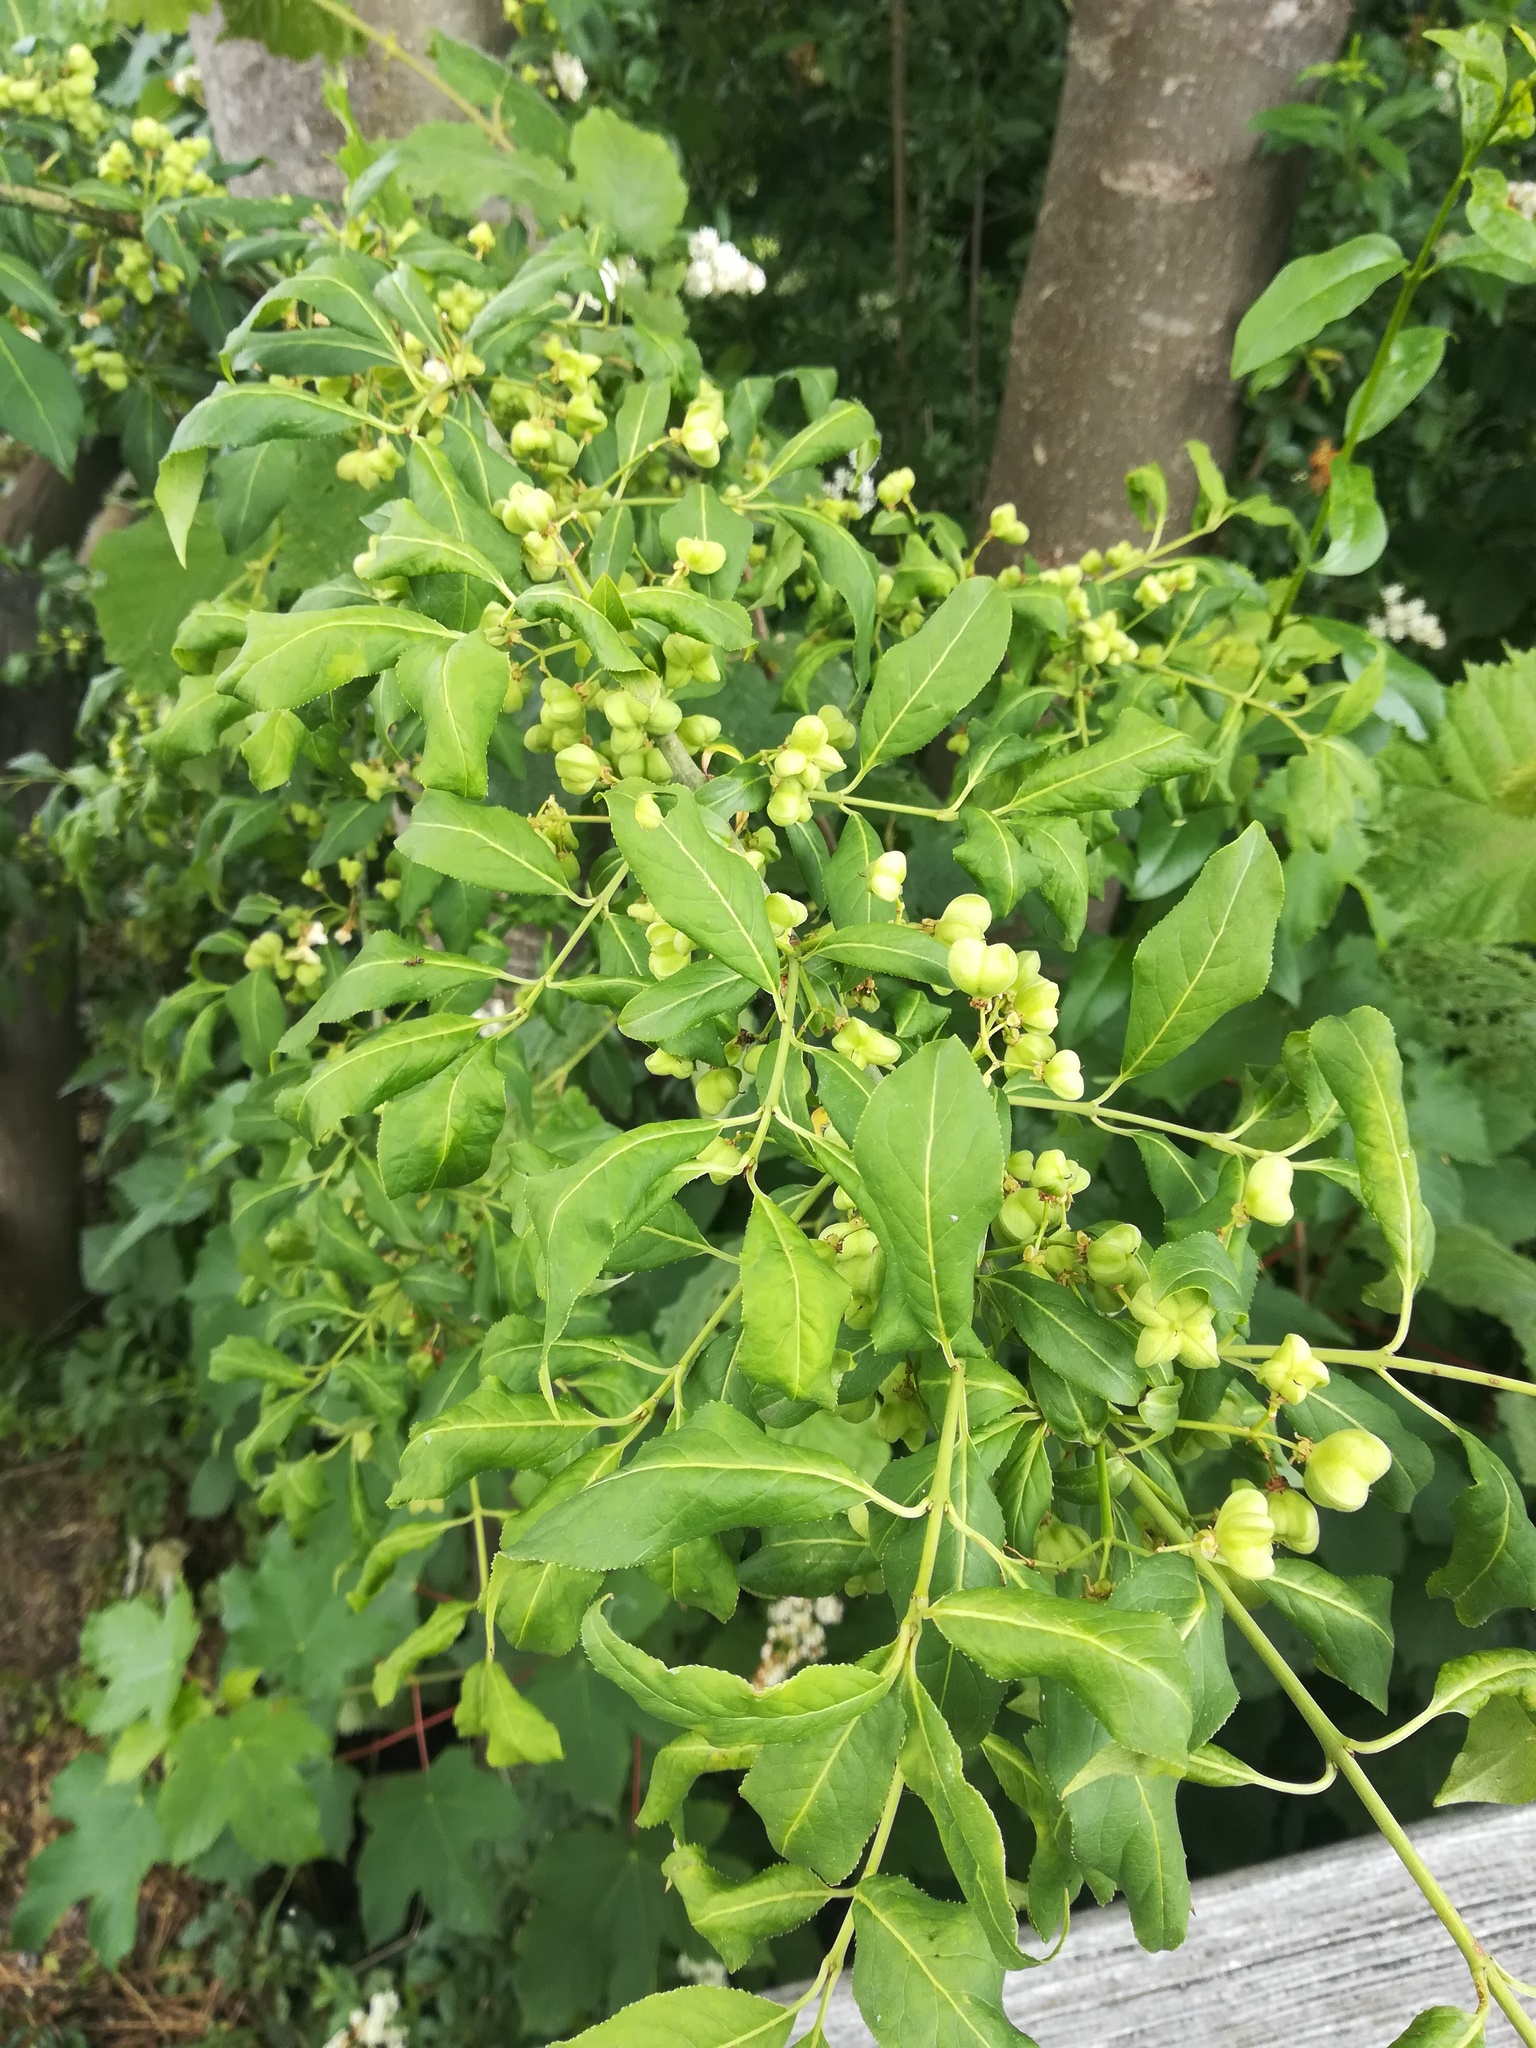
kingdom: Plantae
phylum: Tracheophyta
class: Magnoliopsida
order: Celastrales
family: Celastraceae
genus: Euonymus
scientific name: Euonymus europaeus
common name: Spindle
